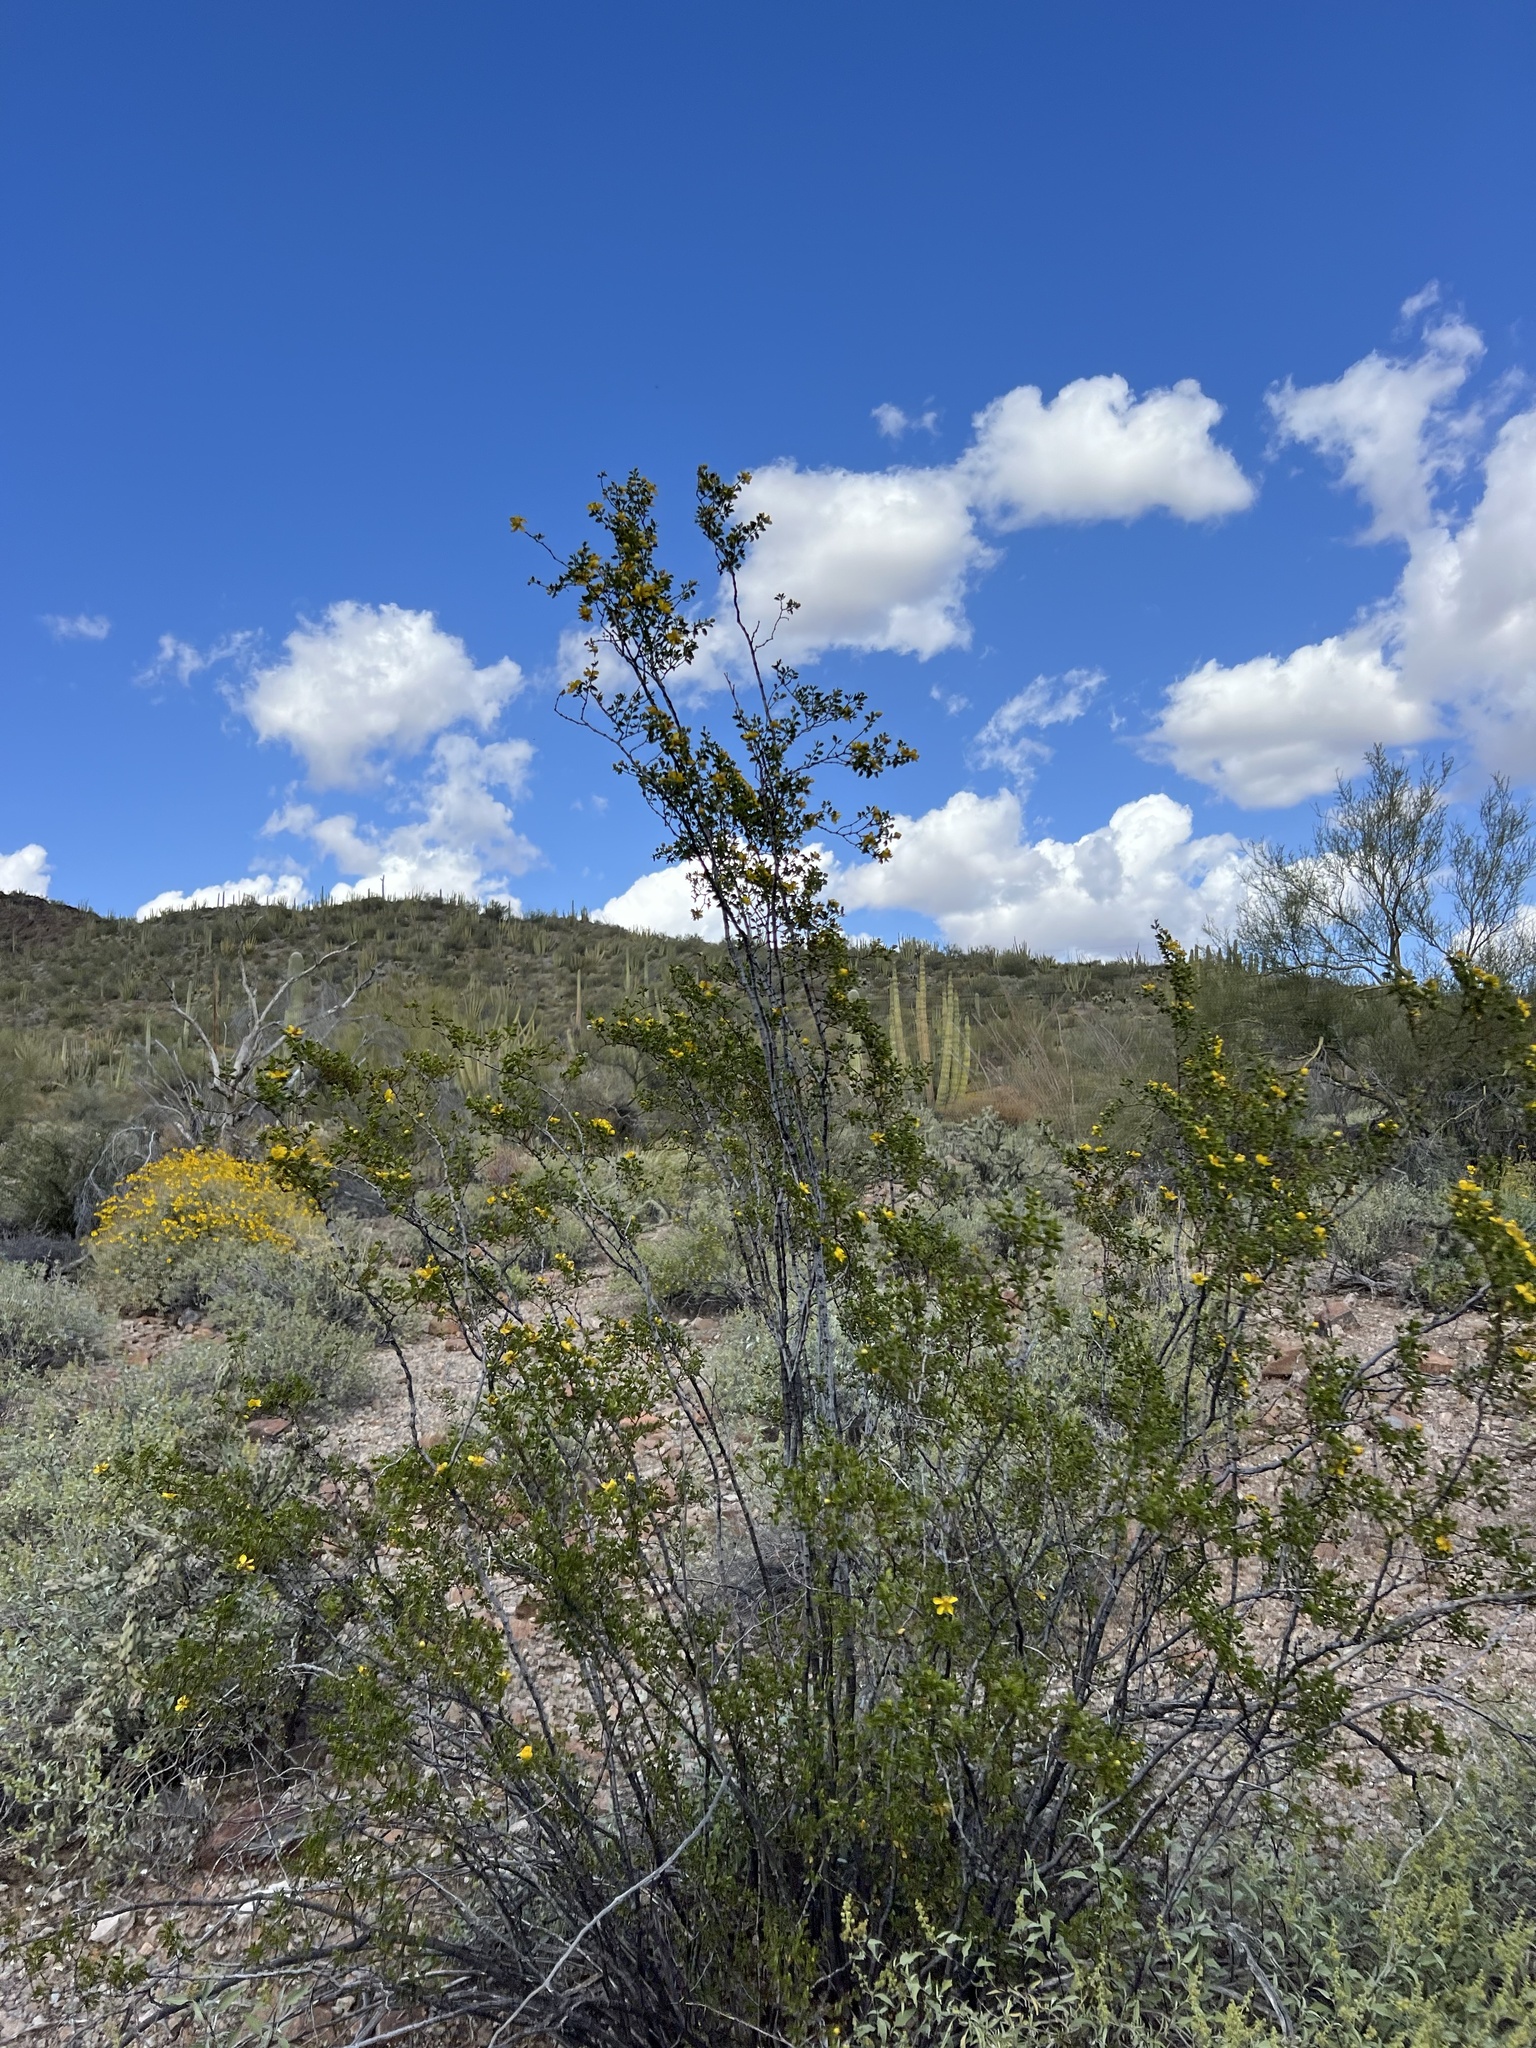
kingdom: Plantae
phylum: Tracheophyta
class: Magnoliopsida
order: Zygophyllales
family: Zygophyllaceae
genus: Larrea
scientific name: Larrea tridentata
